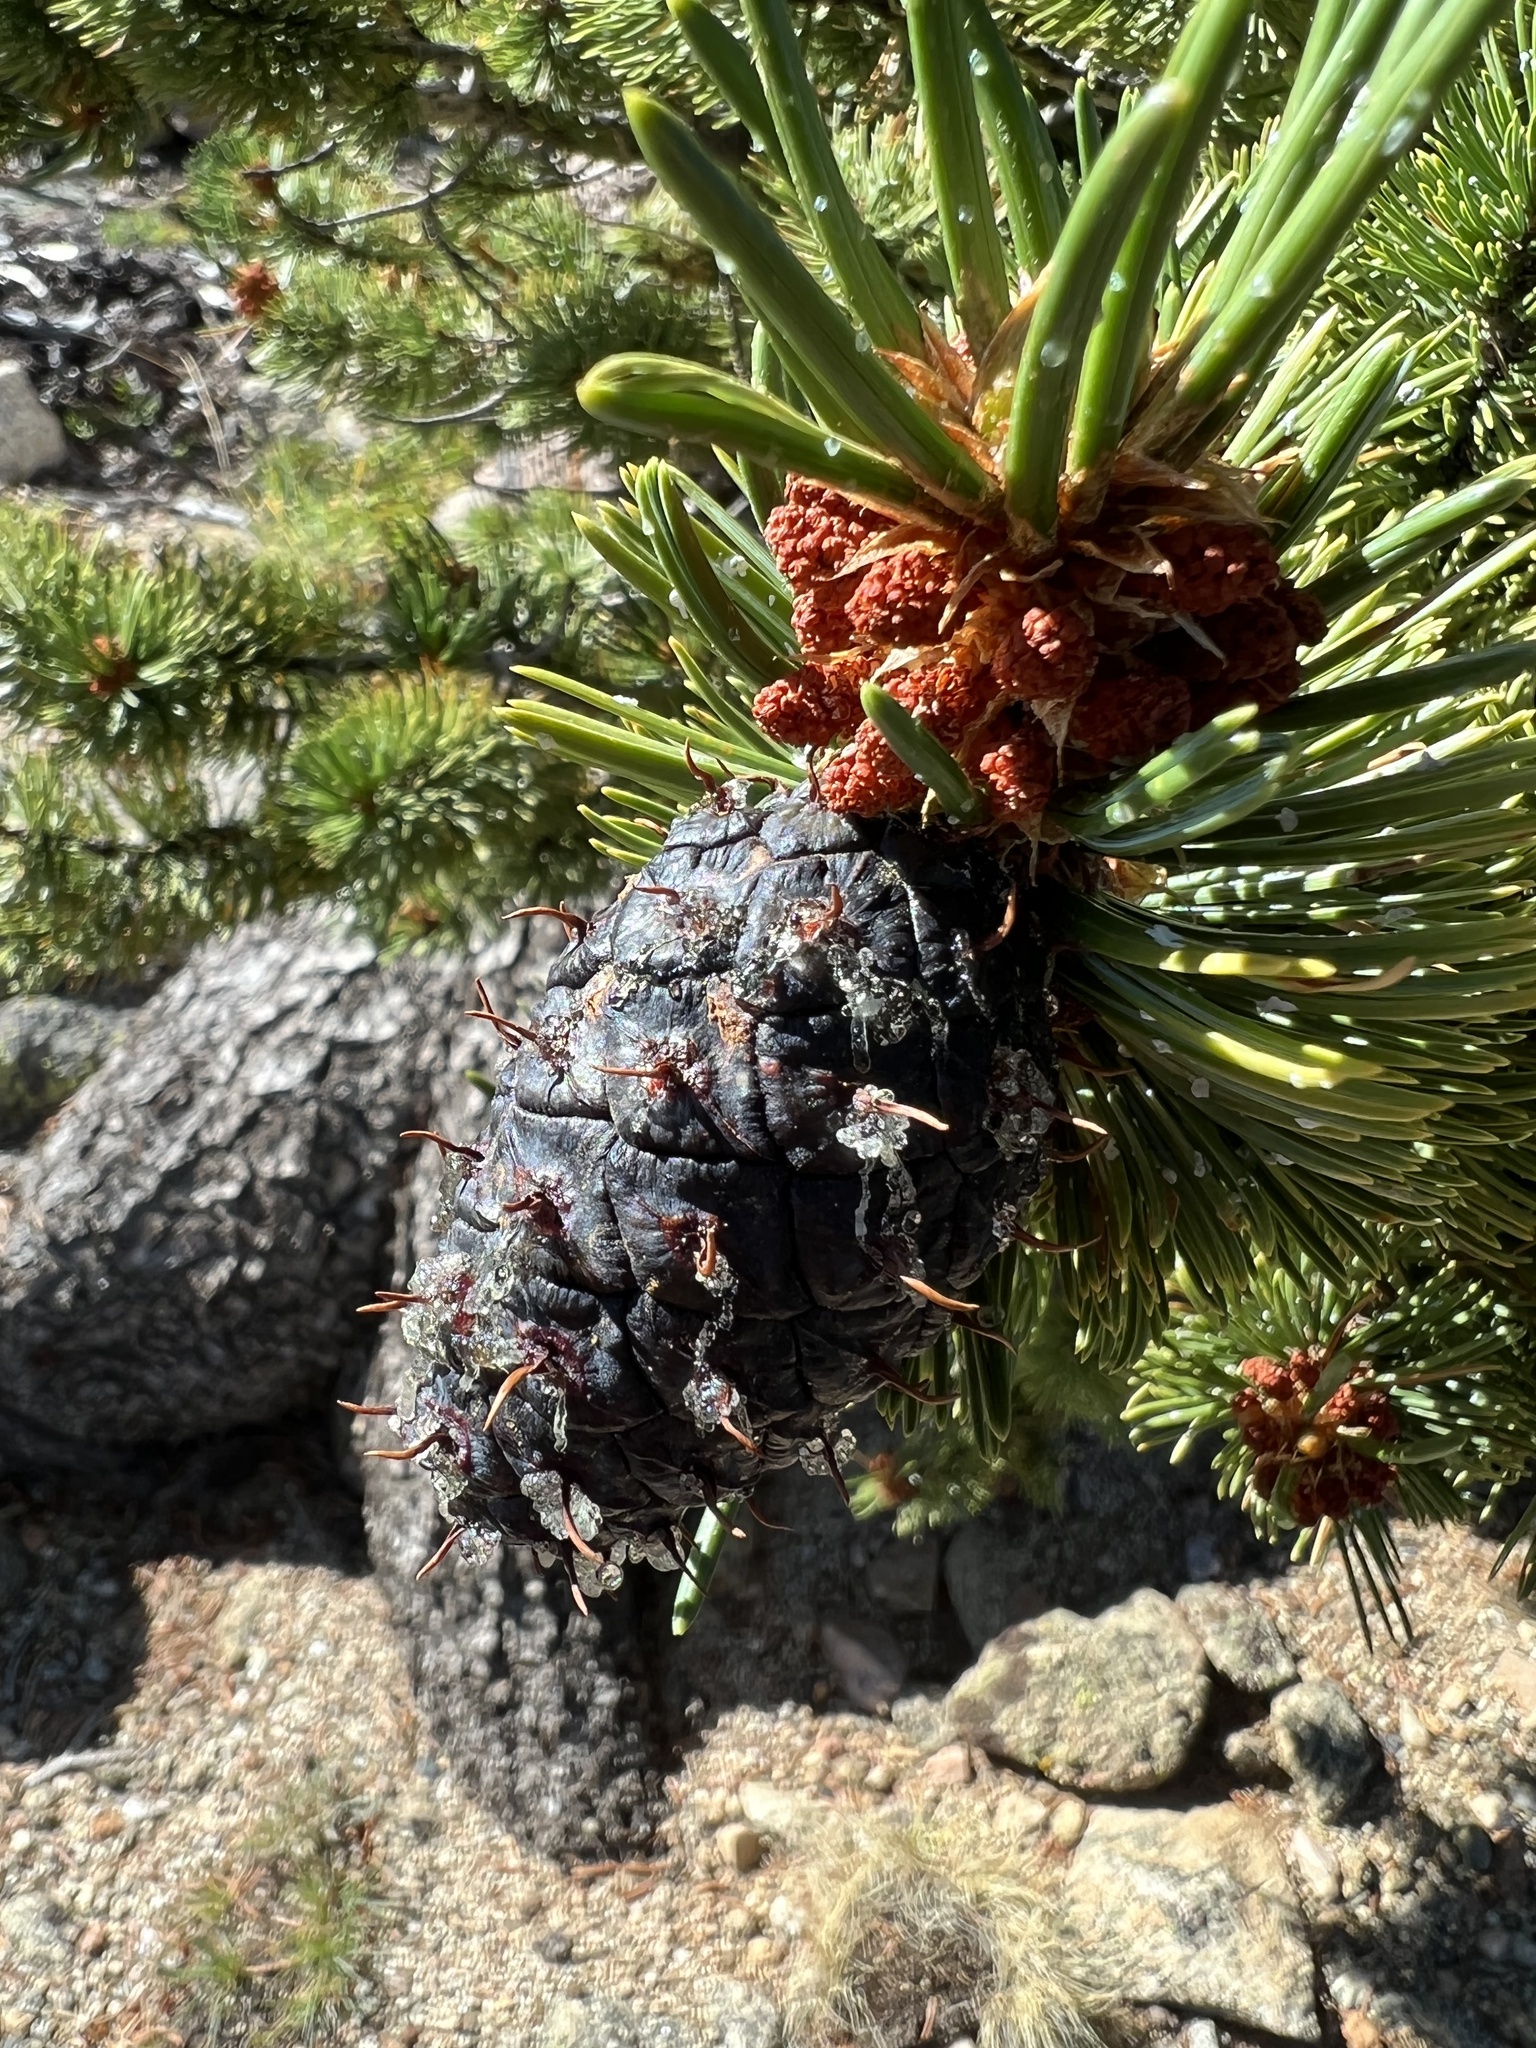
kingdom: Plantae
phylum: Tracheophyta
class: Pinopsida
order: Pinales
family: Pinaceae
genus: Pinus
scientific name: Pinus aristata
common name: Colorado bristlecone pine
